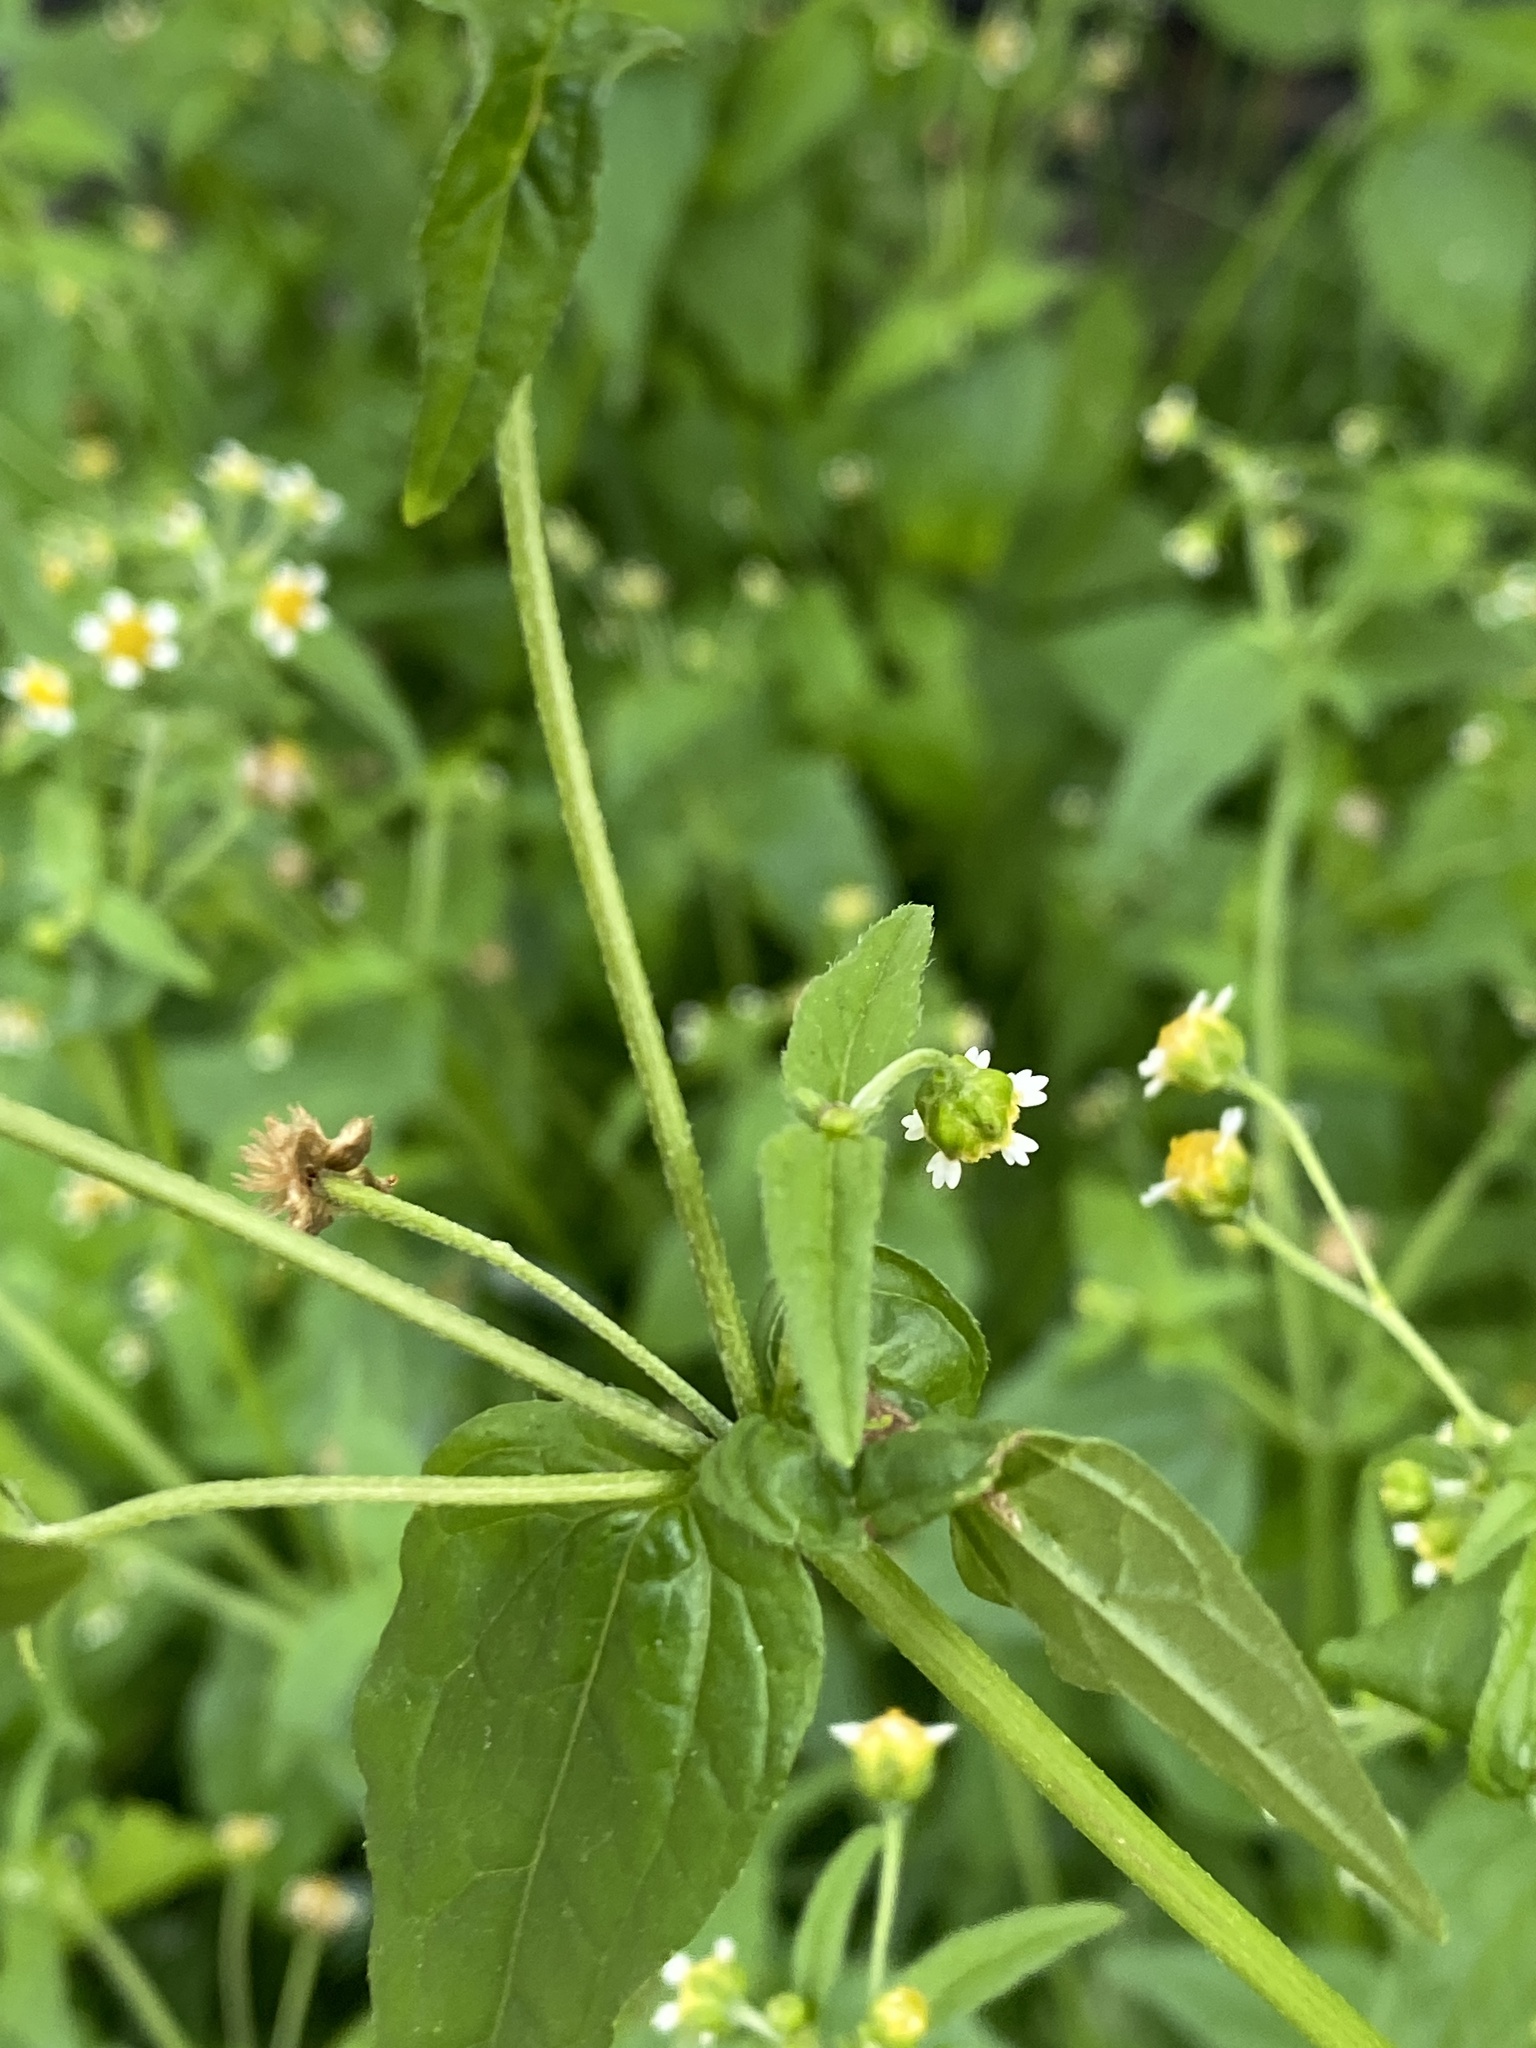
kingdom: Plantae
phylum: Tracheophyta
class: Magnoliopsida
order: Asterales
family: Asteraceae
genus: Galinsoga
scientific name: Galinsoga parviflora
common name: Gallant soldier
